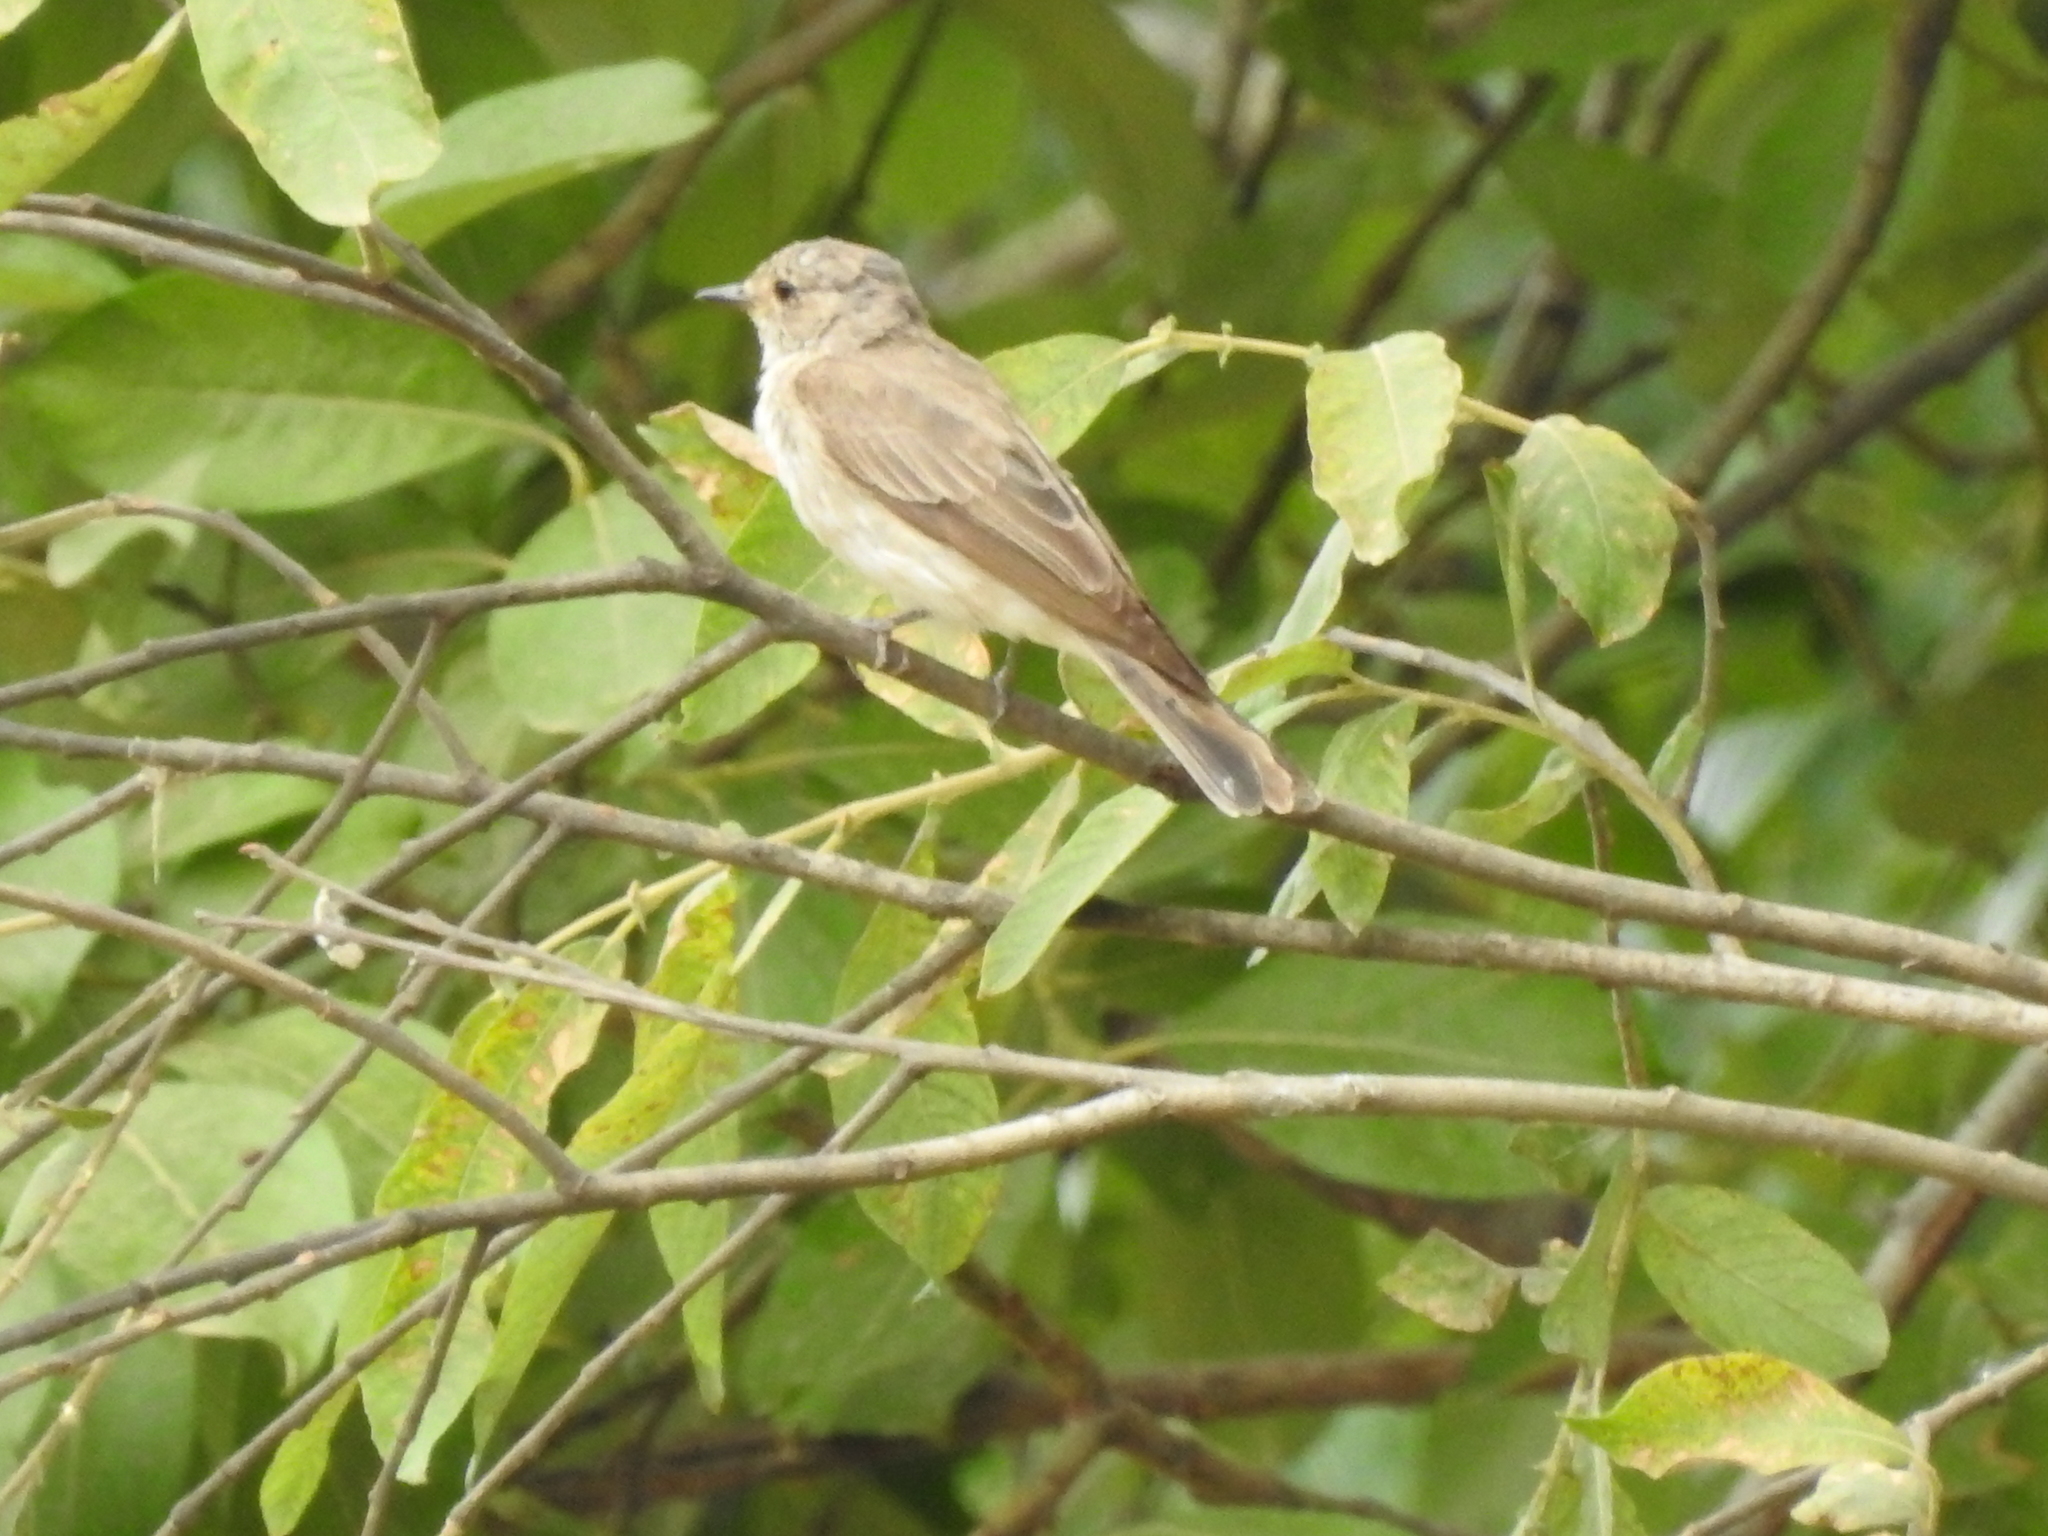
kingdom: Animalia
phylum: Chordata
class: Aves
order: Passeriformes
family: Muscicapidae
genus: Muscicapa
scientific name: Muscicapa striata
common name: Spotted flycatcher
